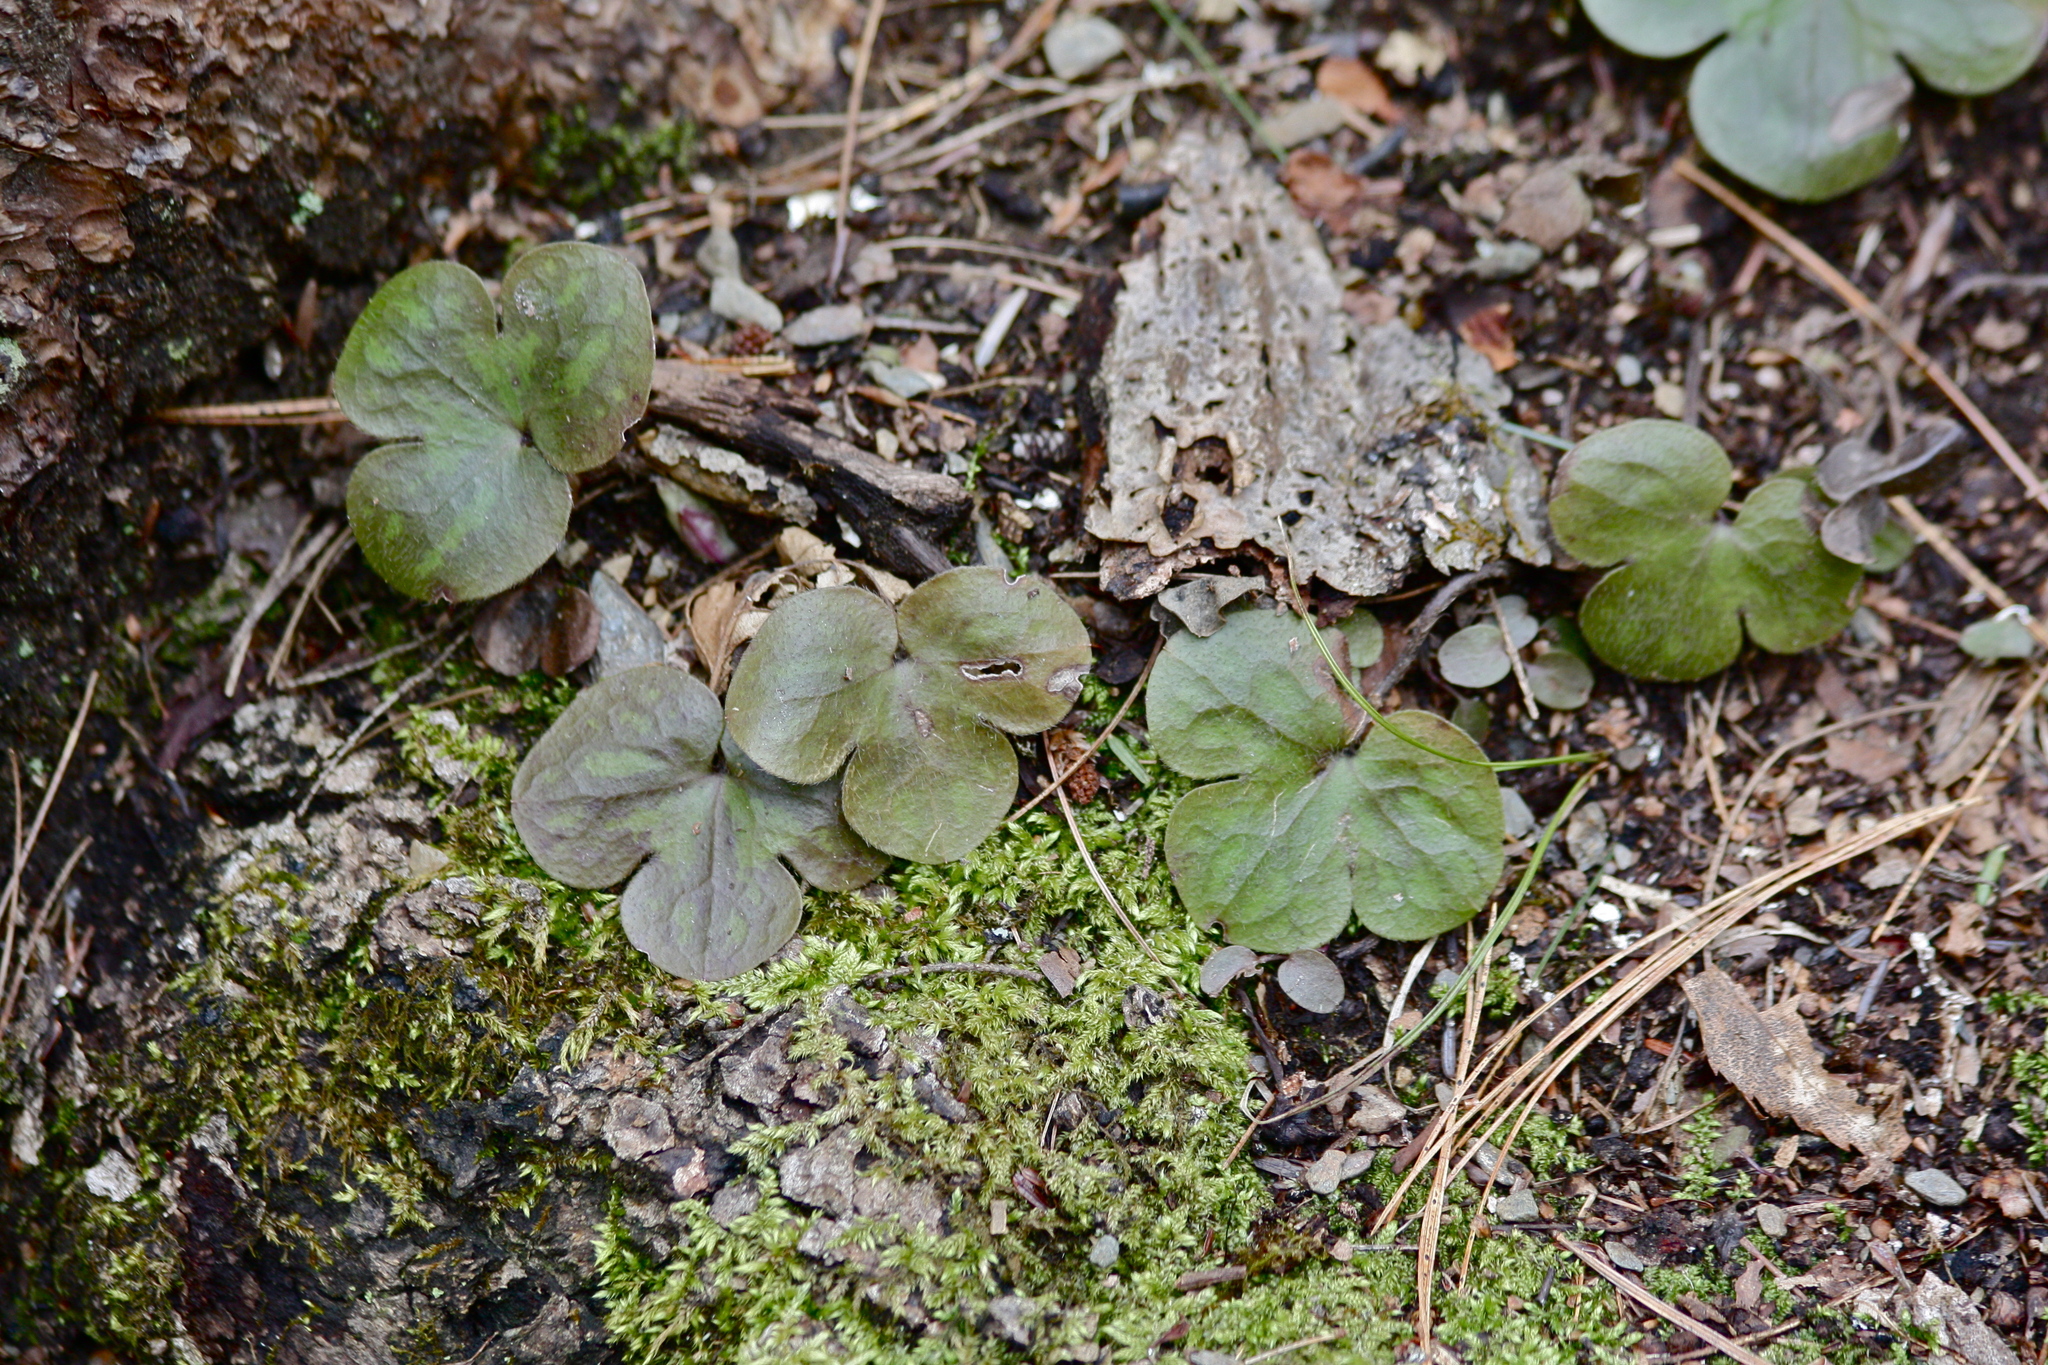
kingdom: Plantae
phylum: Tracheophyta
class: Magnoliopsida
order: Ranunculales
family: Ranunculaceae
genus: Hepatica
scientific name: Hepatica americana
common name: American hepatica
